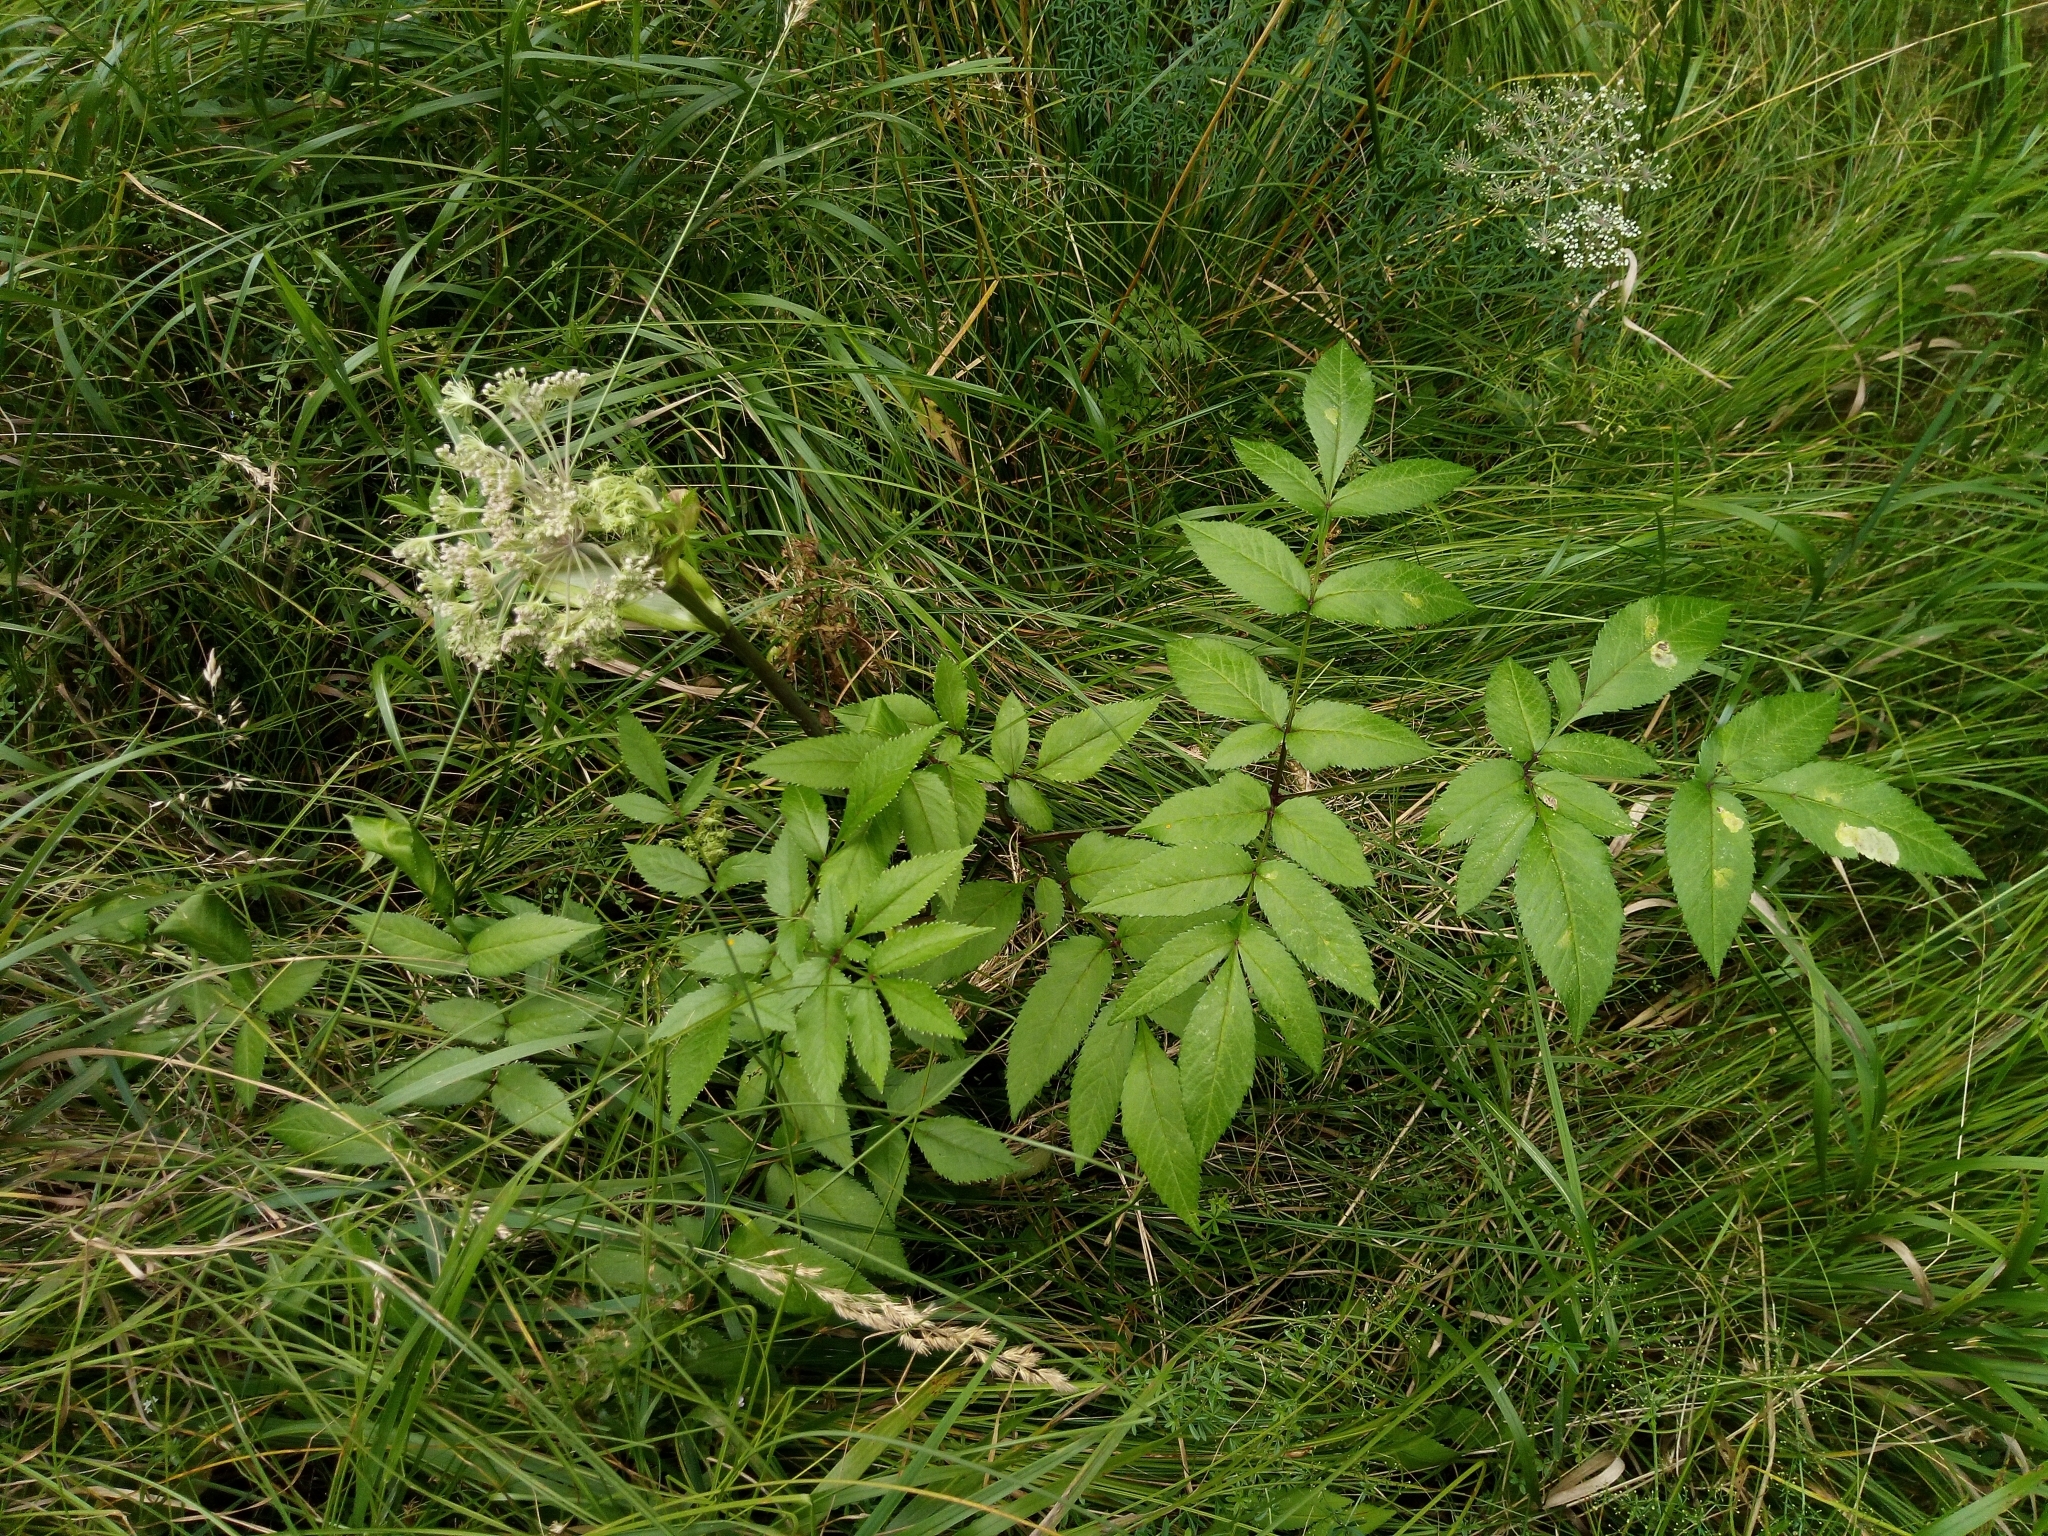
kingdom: Plantae
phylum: Tracheophyta
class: Magnoliopsida
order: Apiales
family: Apiaceae
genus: Angelica
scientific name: Angelica sylvestris
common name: Wild angelica
